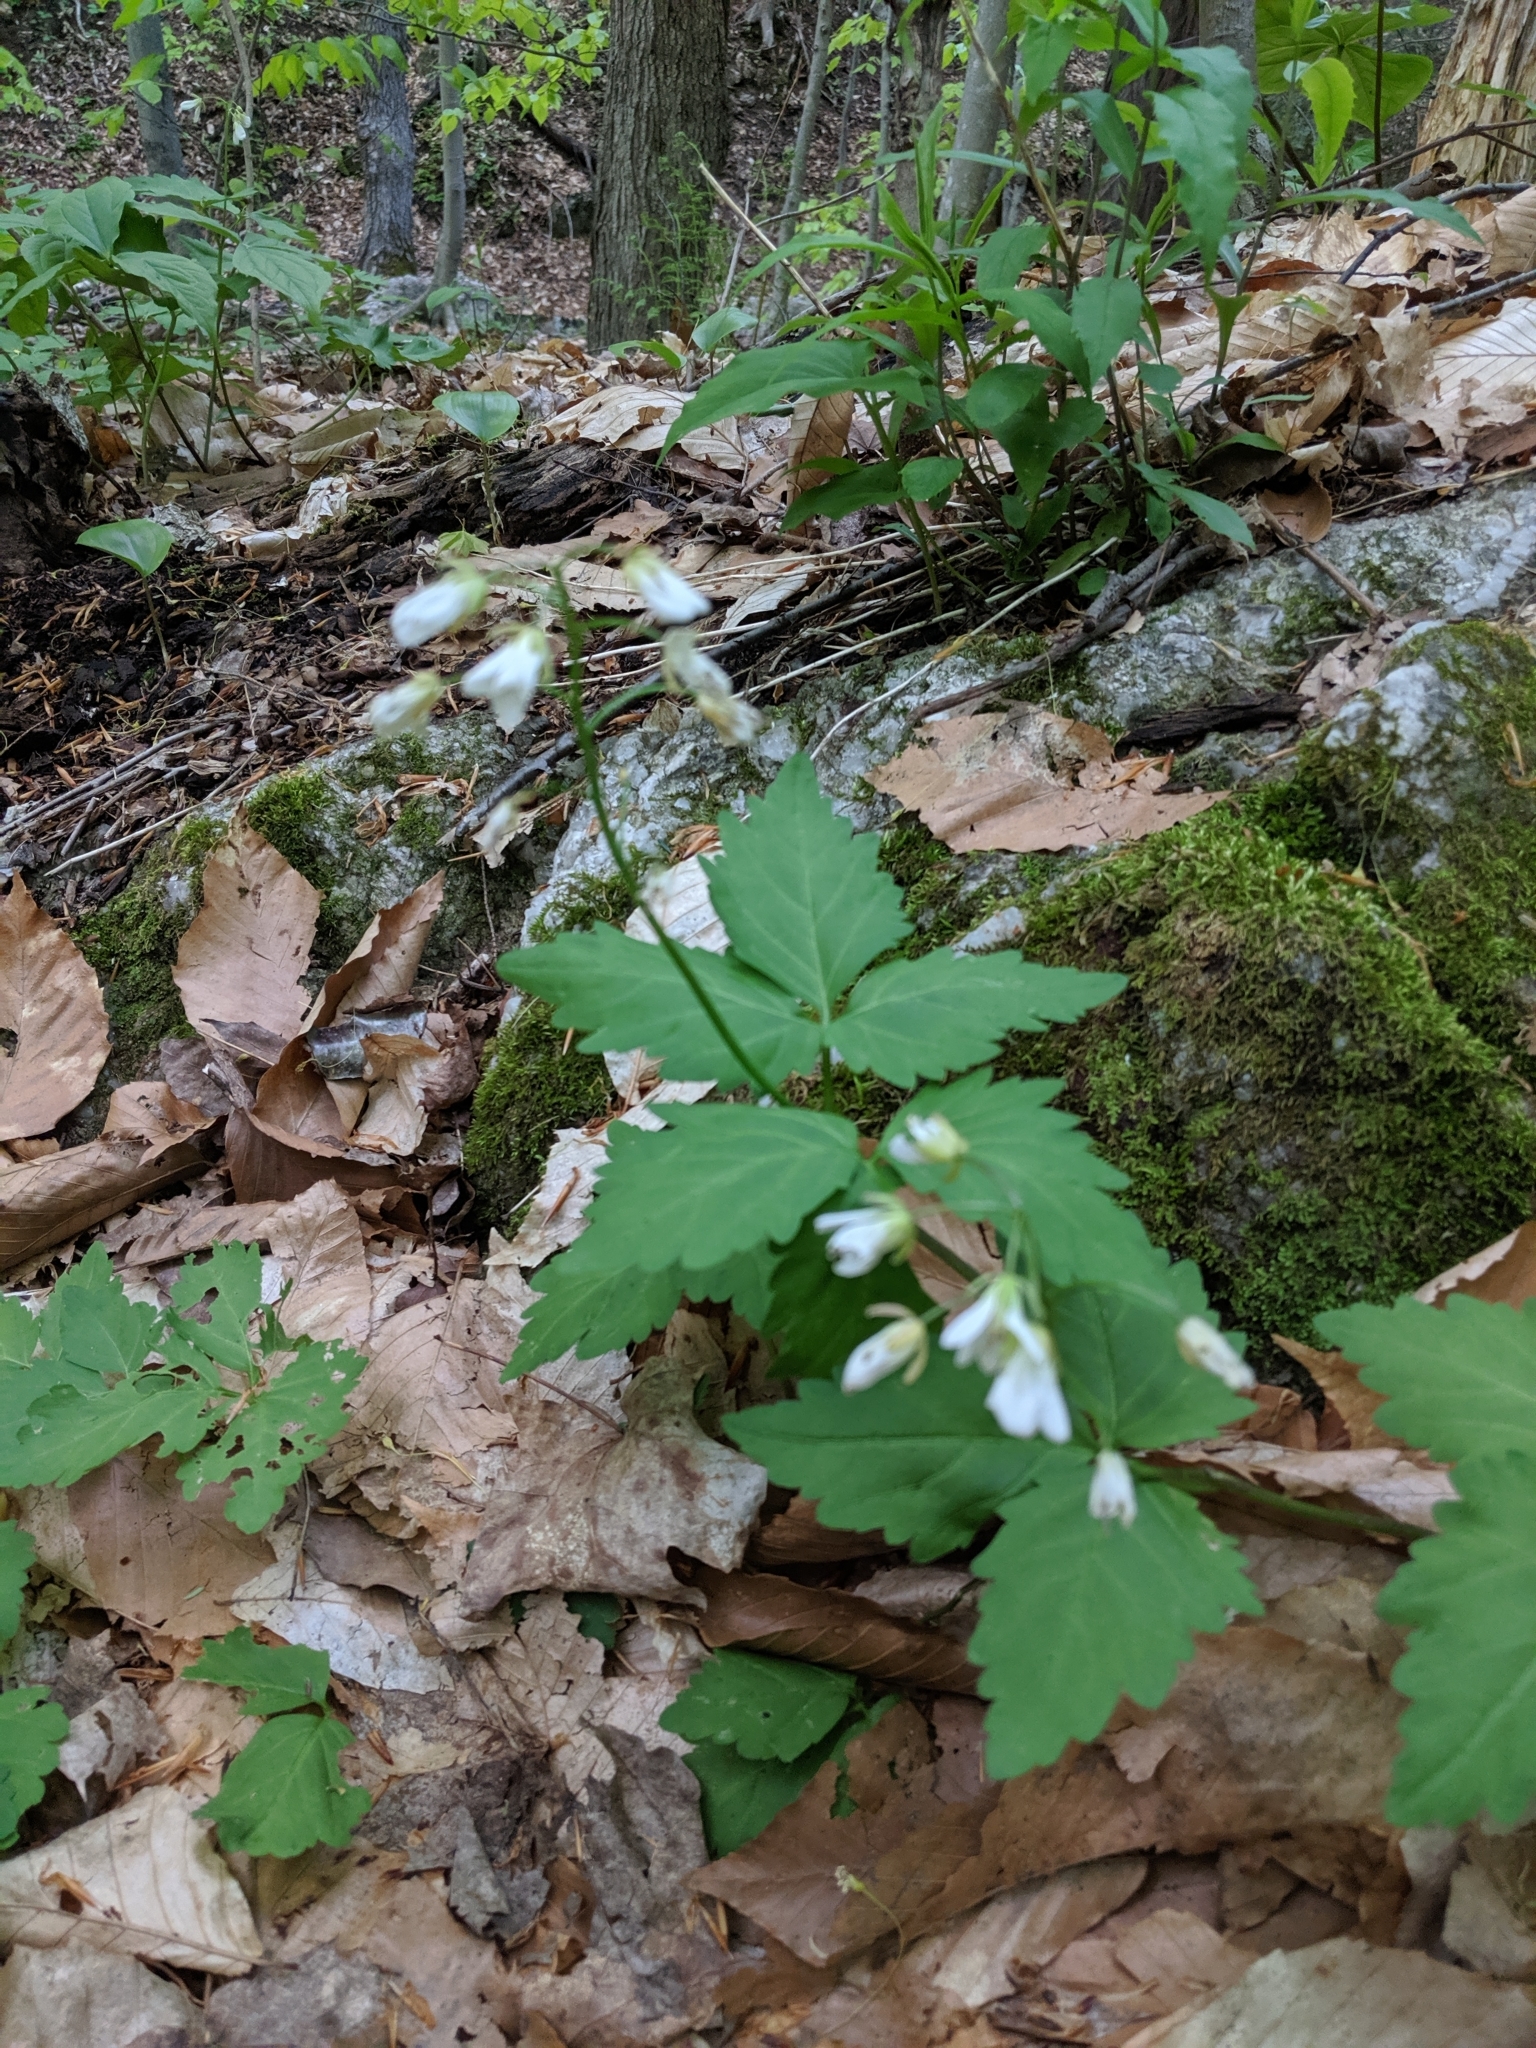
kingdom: Plantae
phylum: Tracheophyta
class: Magnoliopsida
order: Brassicales
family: Brassicaceae
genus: Cardamine
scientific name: Cardamine diphylla
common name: Broad-leaved toothwort
